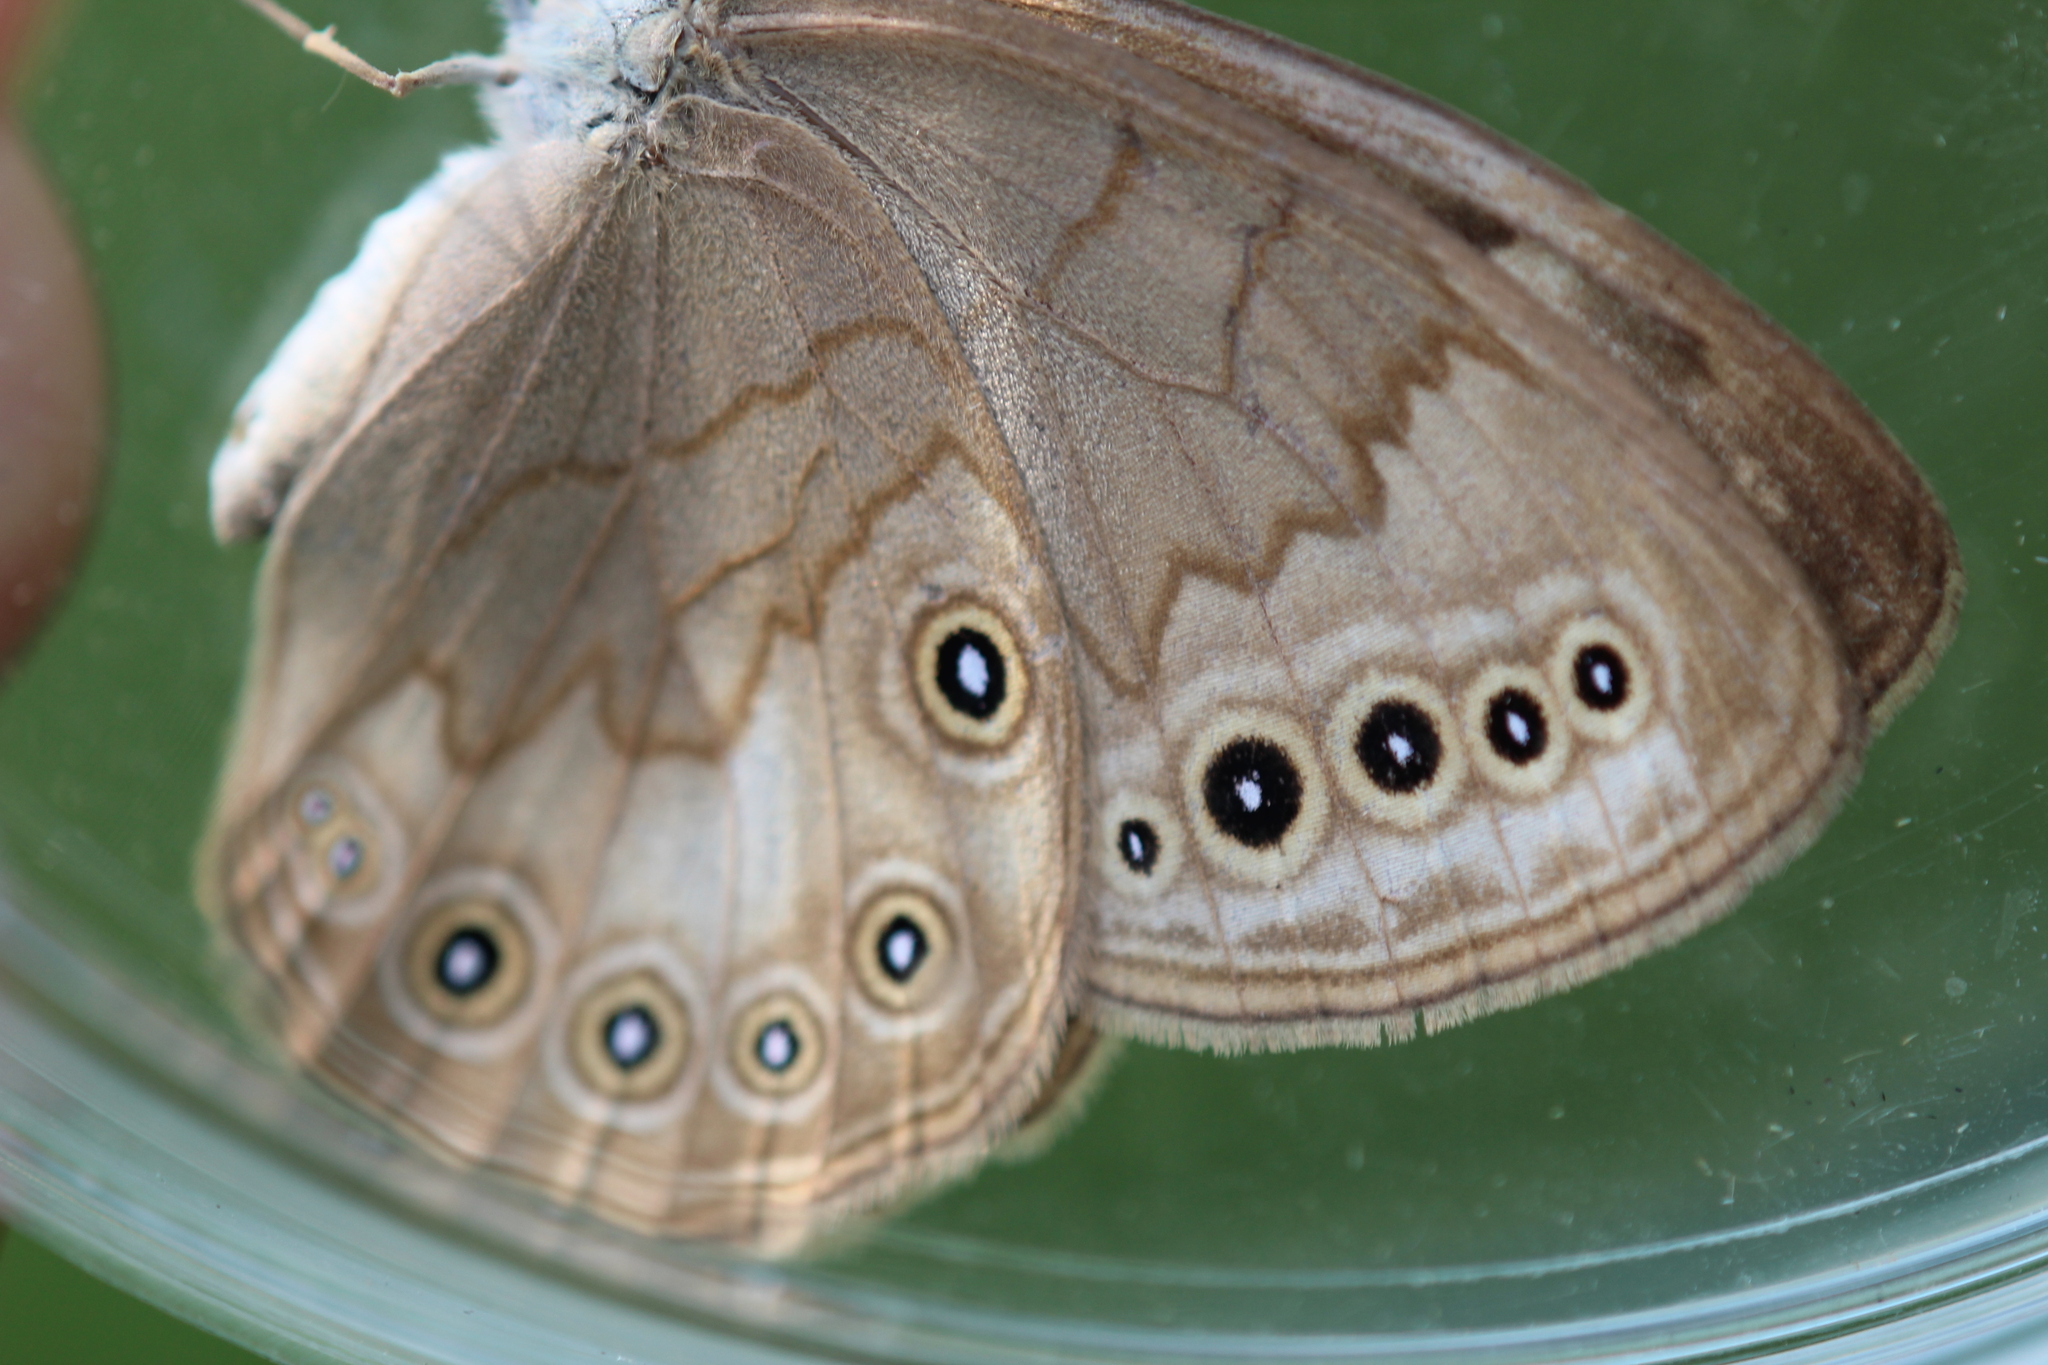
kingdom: Animalia
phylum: Arthropoda
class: Insecta
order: Lepidoptera
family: Nymphalidae
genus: Lethe
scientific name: Lethe eurydice
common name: Eyed brown
